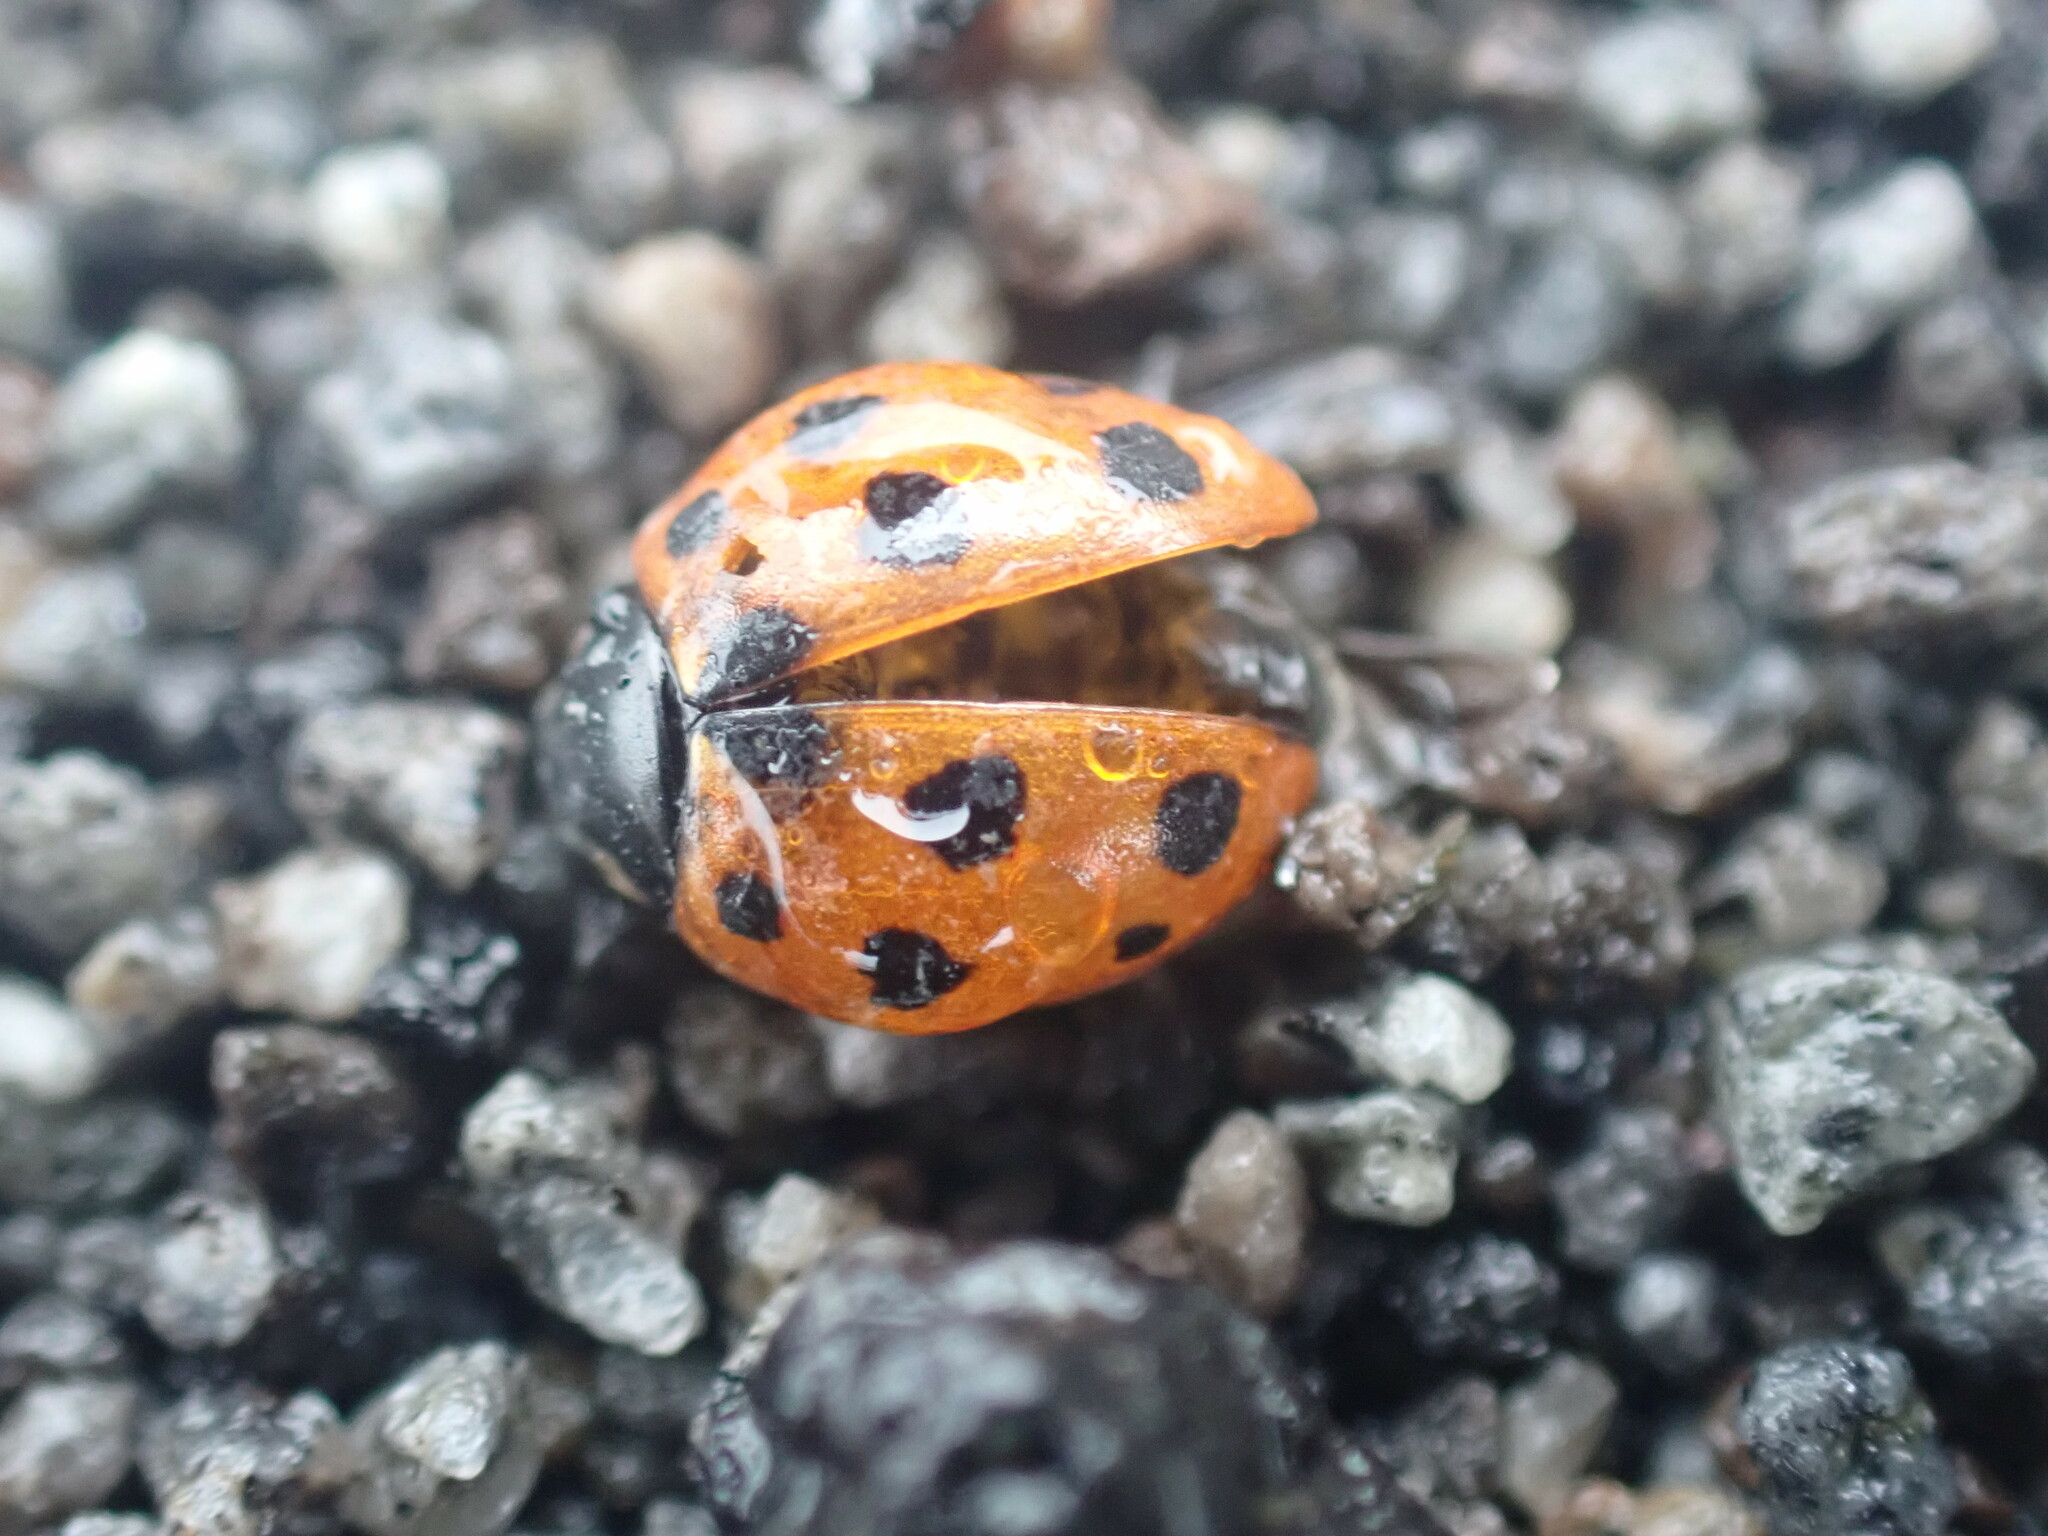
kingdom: Animalia
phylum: Arthropoda
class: Insecta
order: Coleoptera
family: Coccinellidae
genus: Coccinella
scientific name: Coccinella undecimpunctata
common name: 11-spot ladybird
